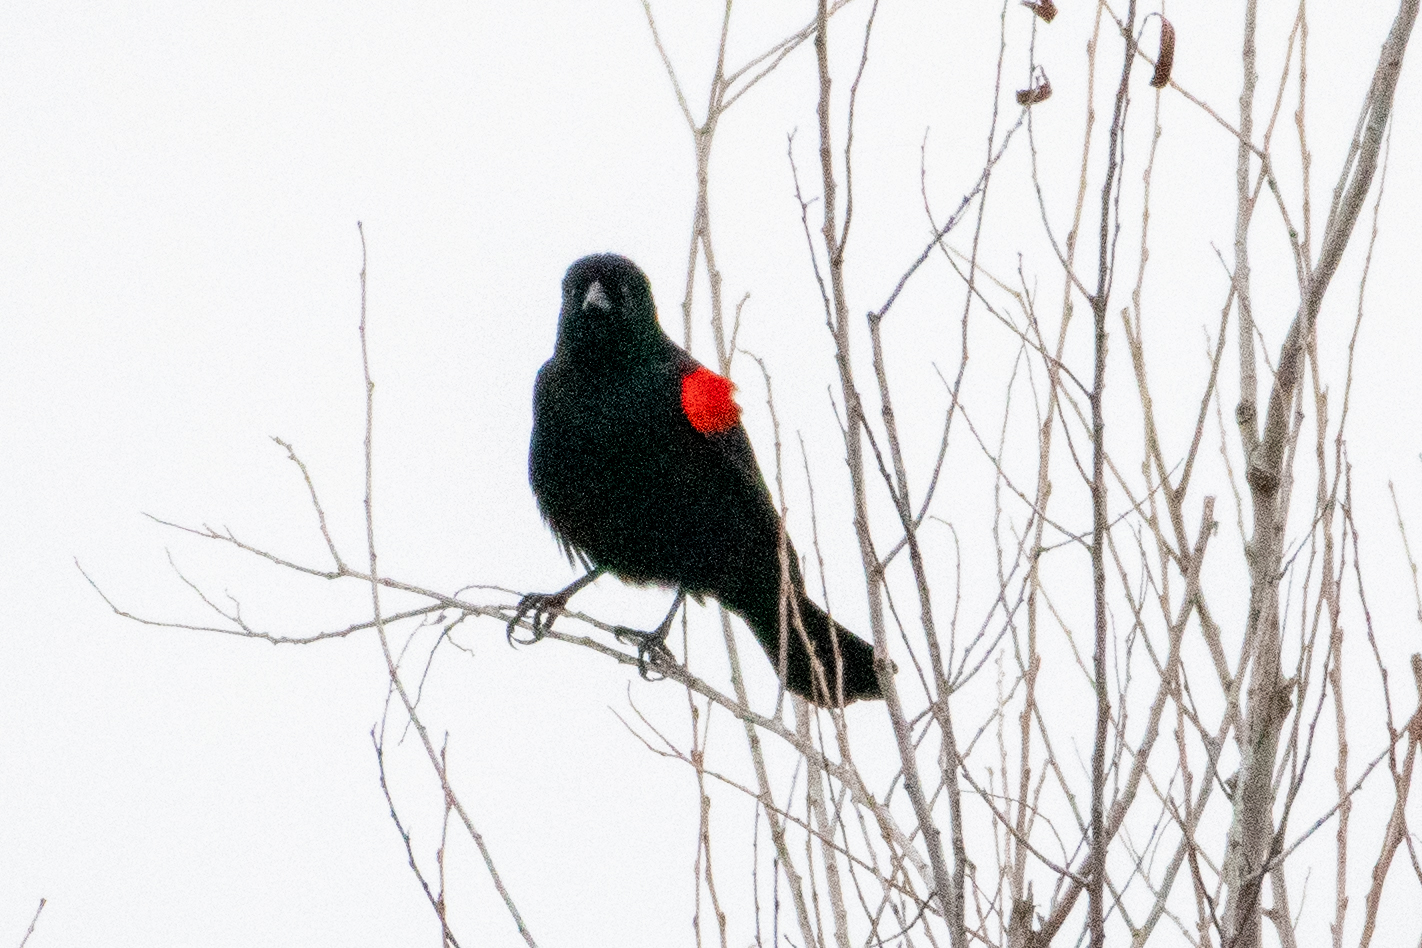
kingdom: Animalia
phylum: Chordata
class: Aves
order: Passeriformes
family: Icteridae
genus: Agelaius
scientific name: Agelaius phoeniceus
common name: Red-winged blackbird
